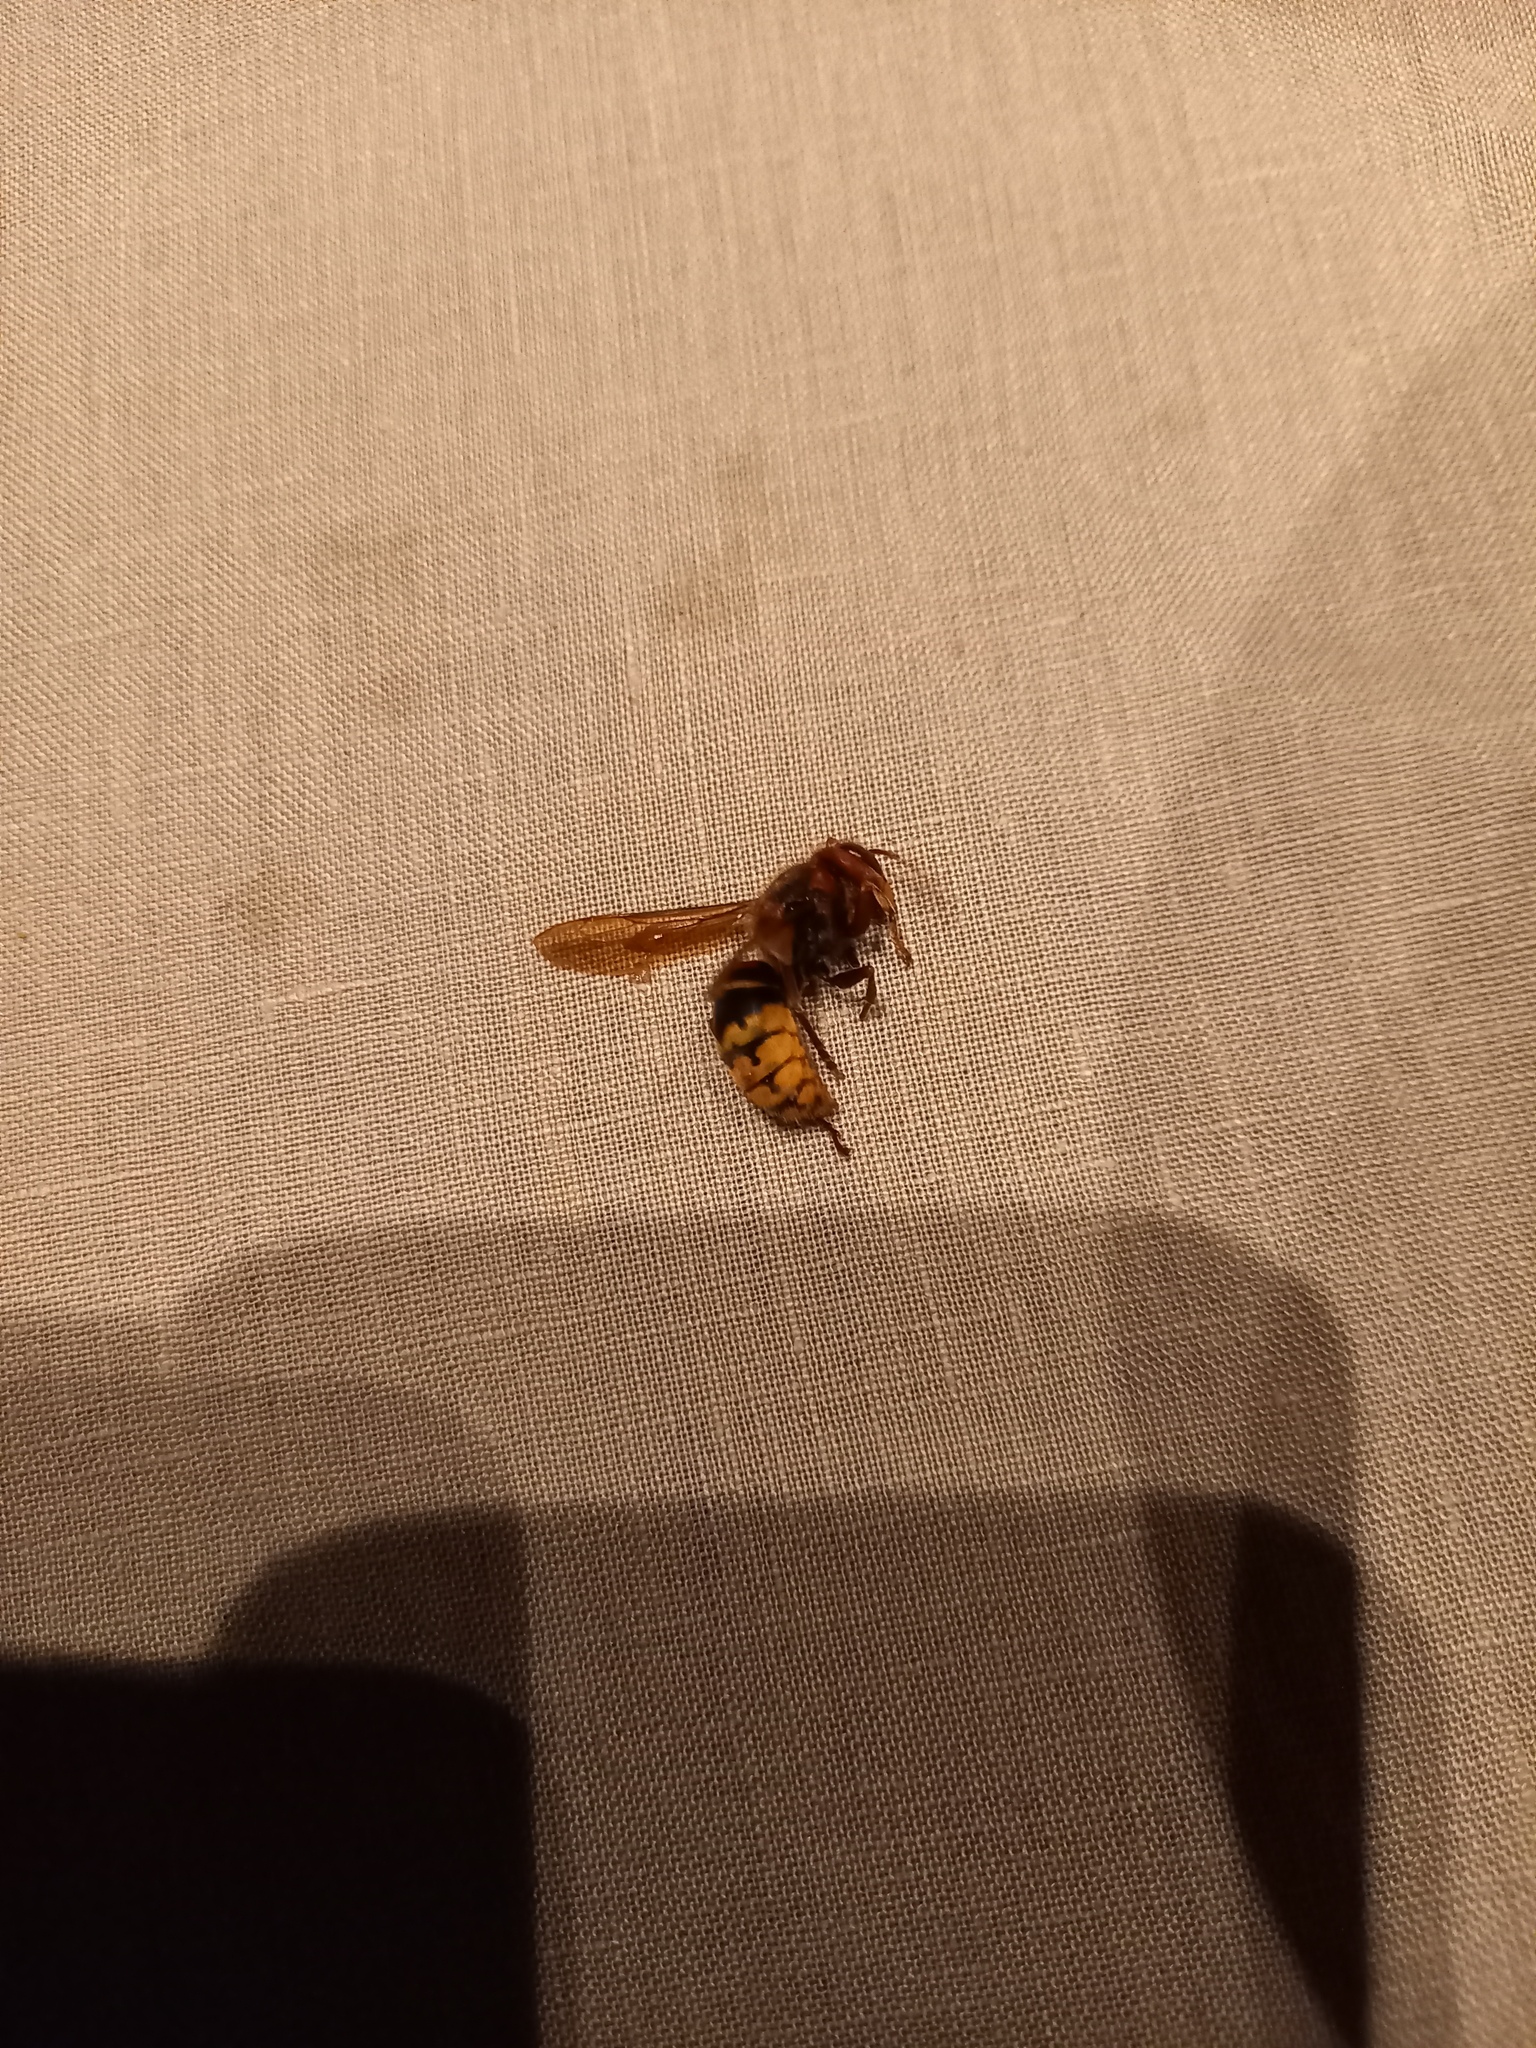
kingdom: Animalia
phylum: Arthropoda
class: Insecta
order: Hymenoptera
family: Vespidae
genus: Vespa
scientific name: Vespa crabro
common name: Hornet
